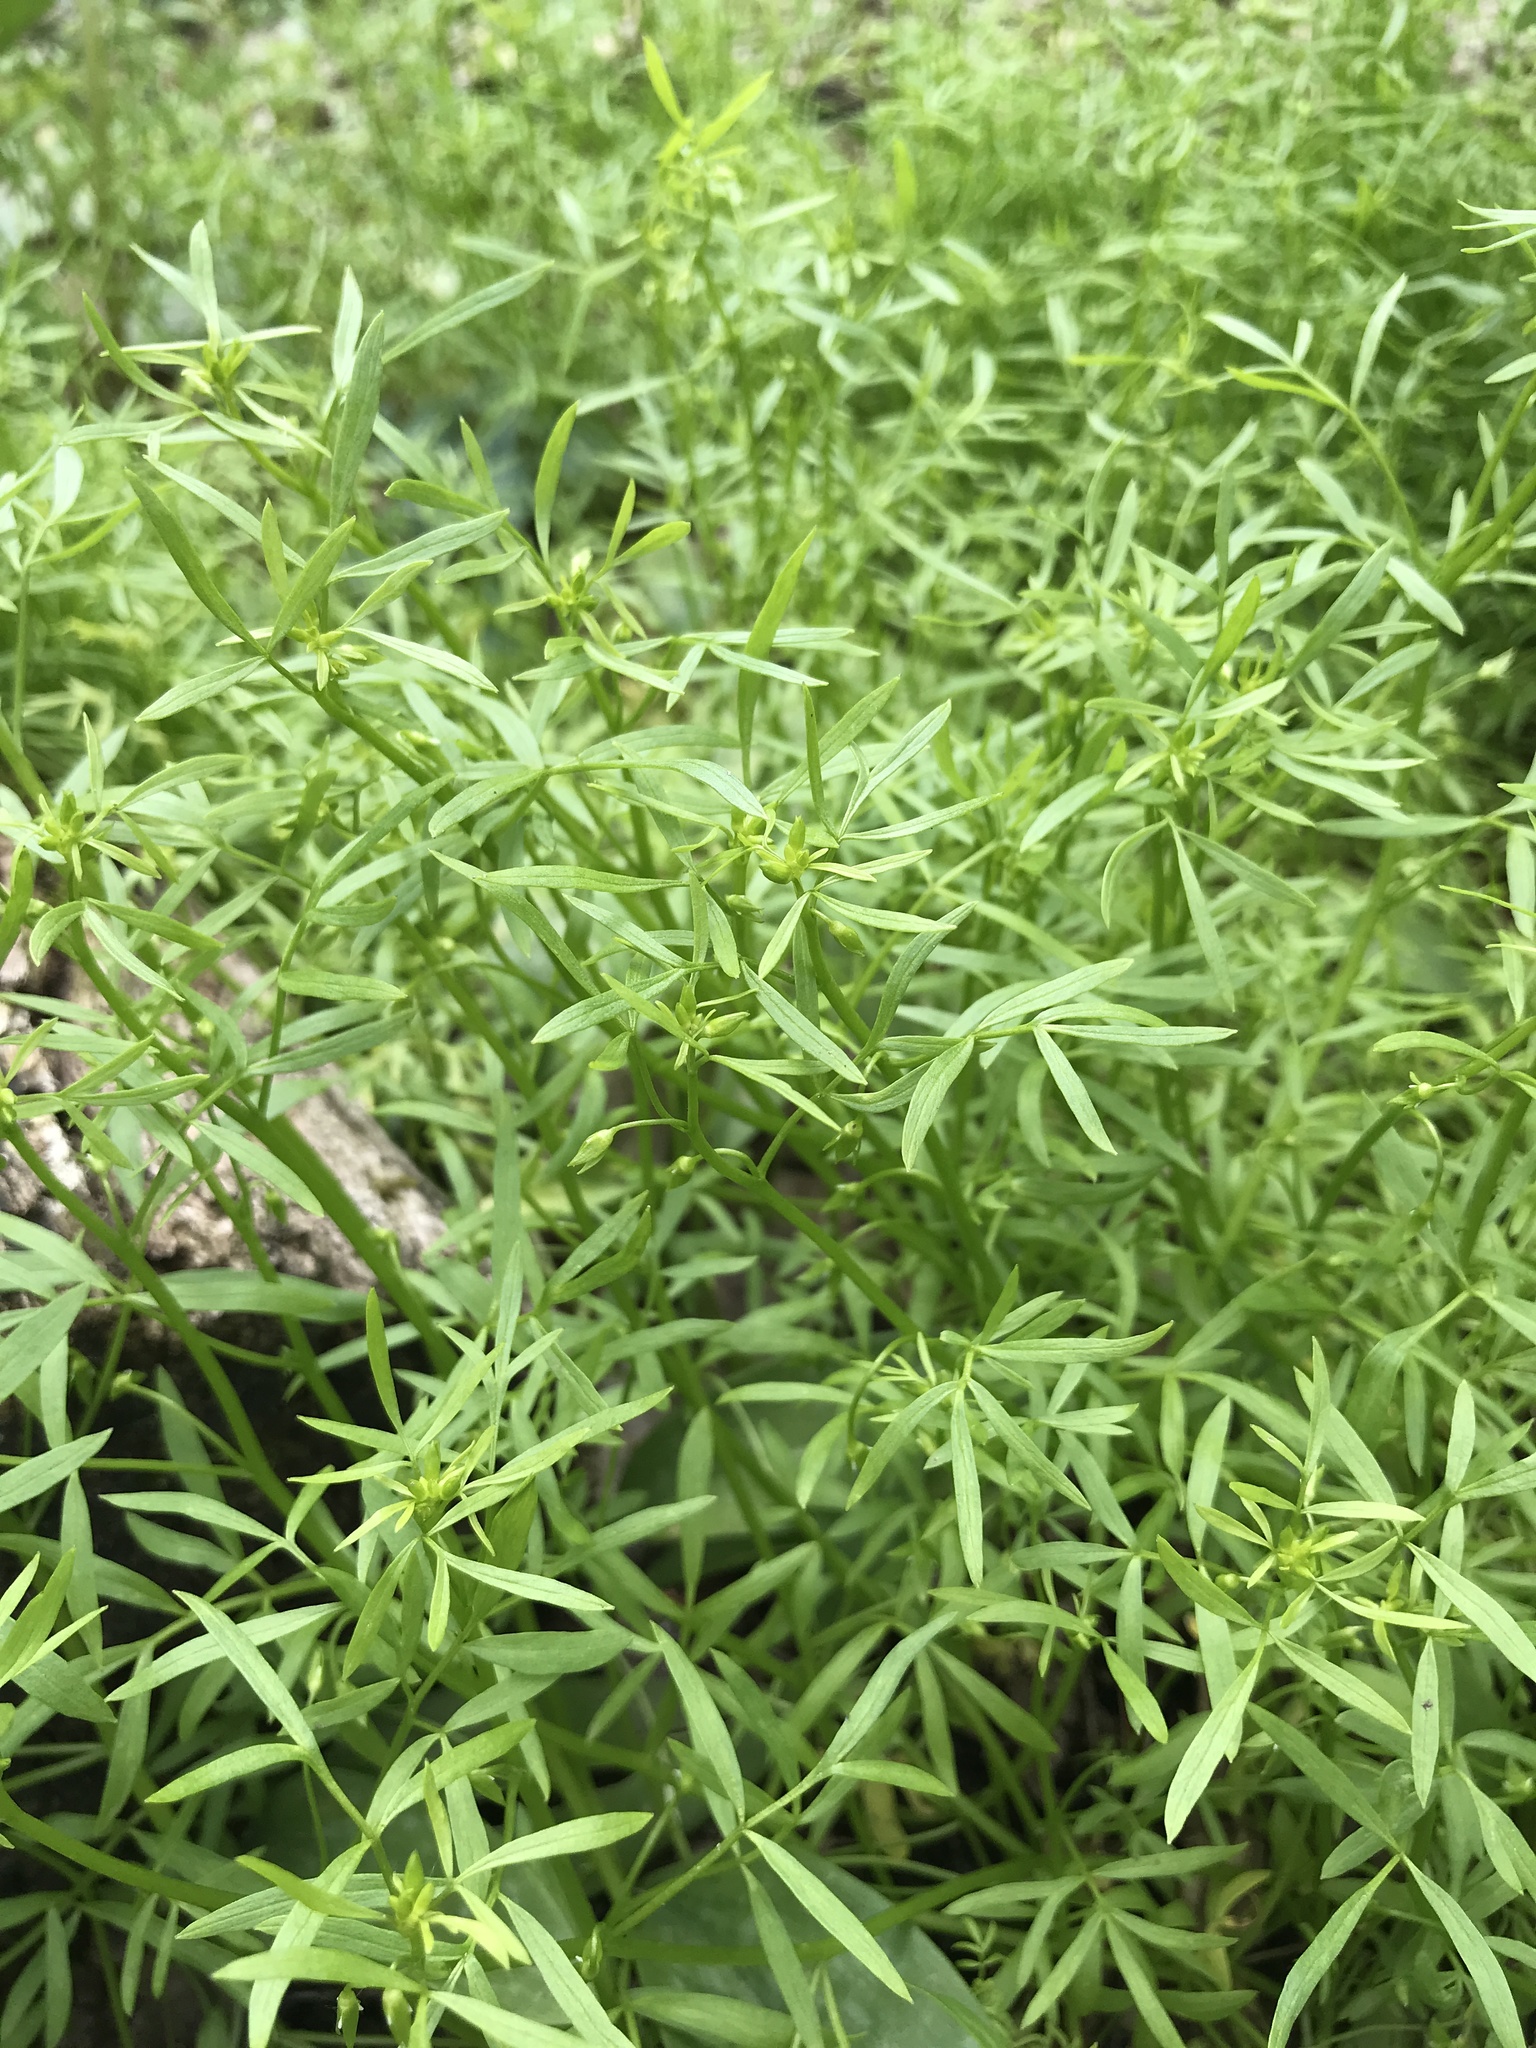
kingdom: Plantae
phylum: Tracheophyta
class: Magnoliopsida
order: Brassicales
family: Limnanthaceae
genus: Floerkea
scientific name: Floerkea proserpinacoides
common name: False mermaid
